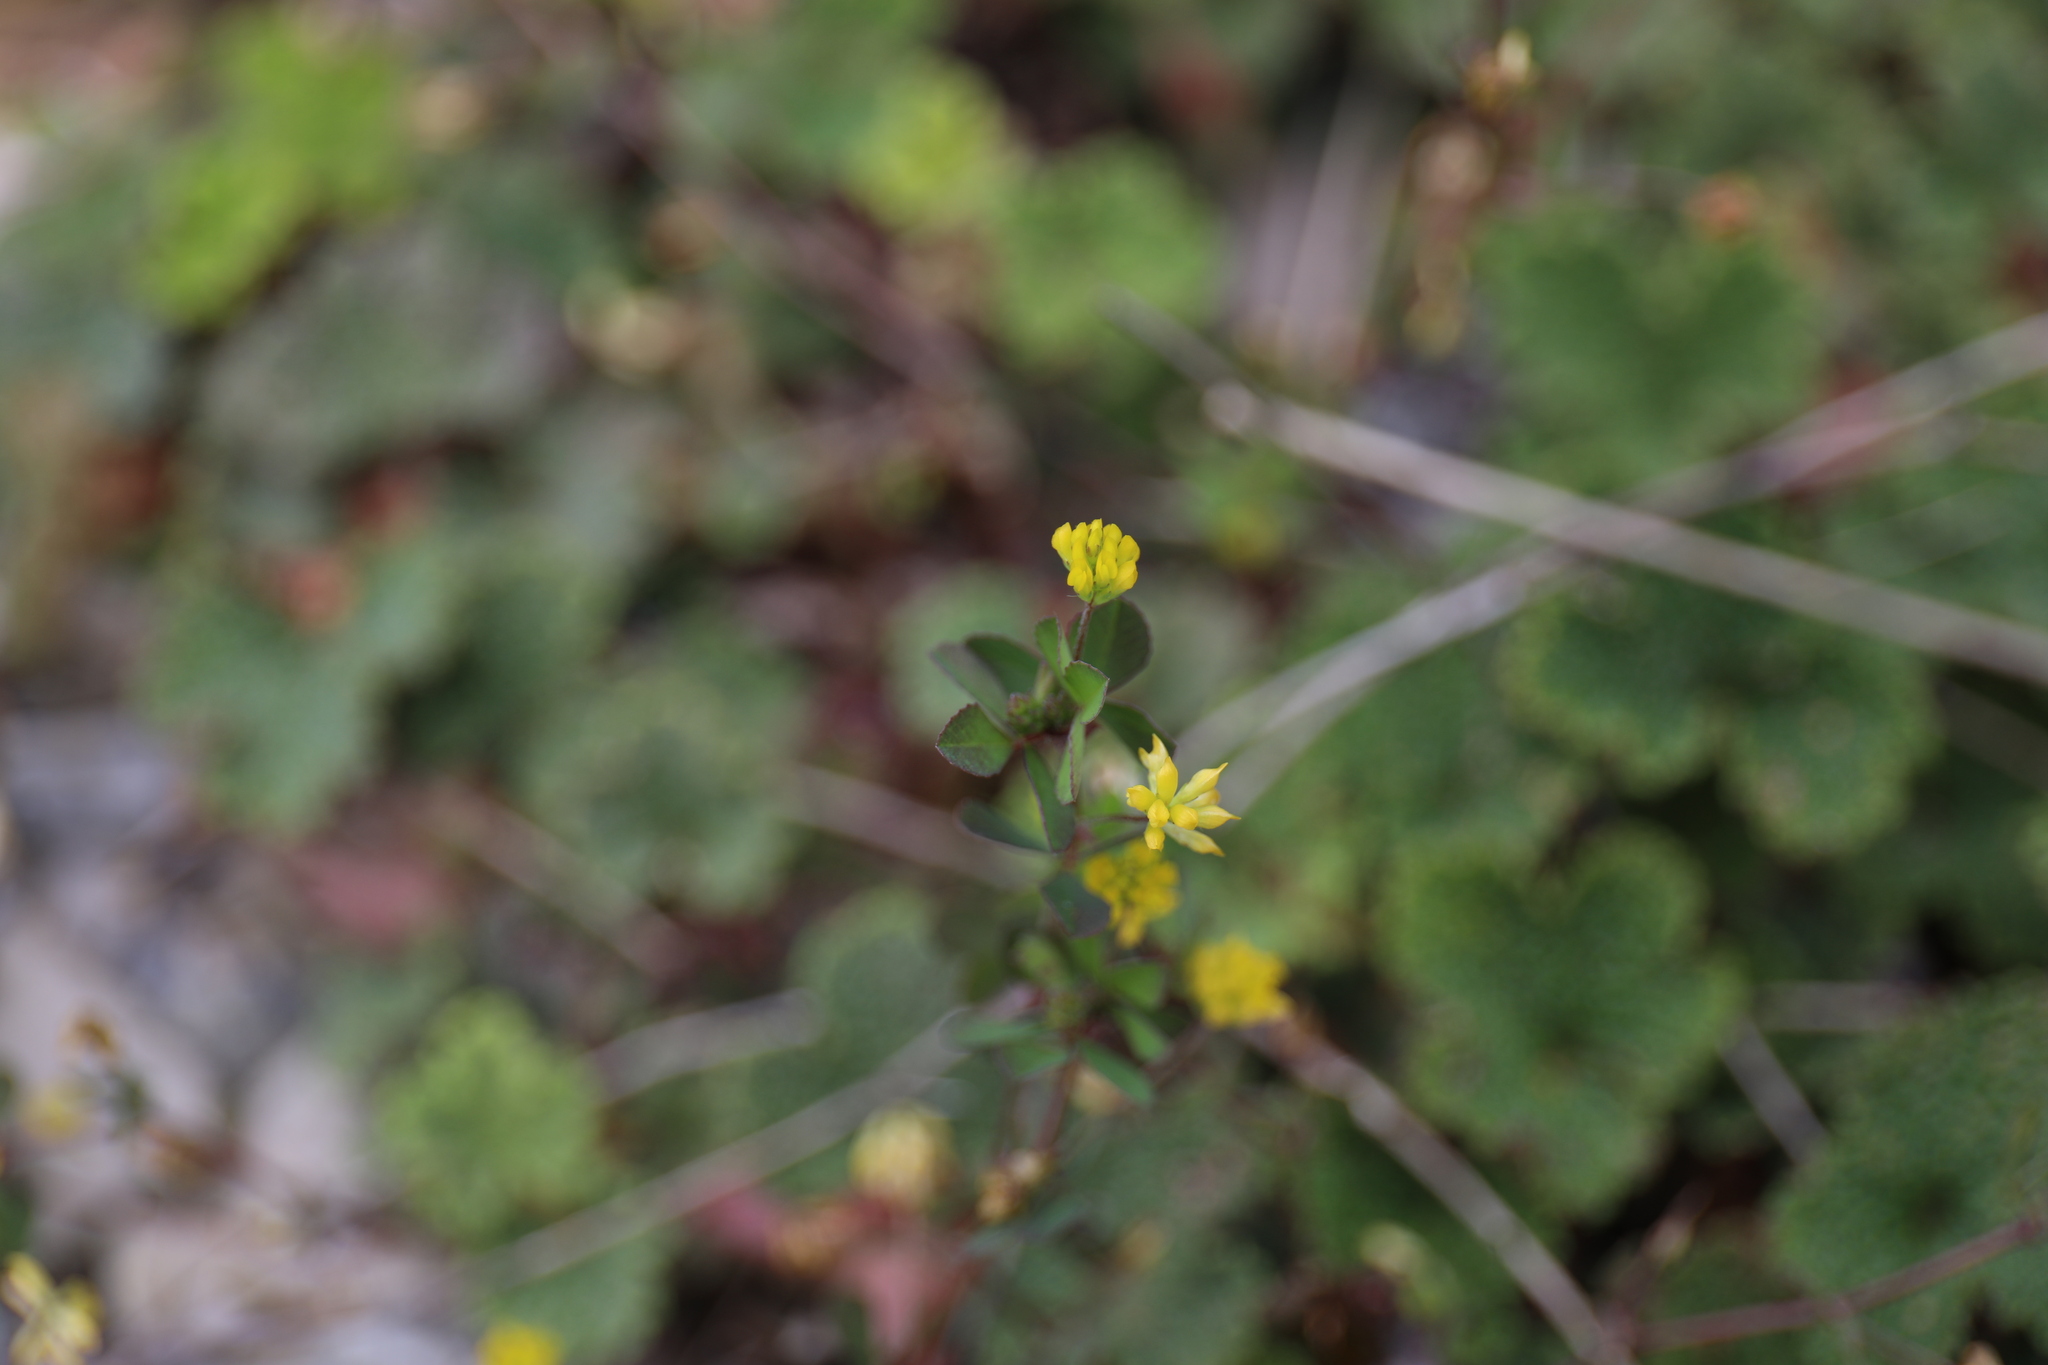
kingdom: Plantae
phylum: Tracheophyta
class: Magnoliopsida
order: Fabales
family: Fabaceae
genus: Trifolium
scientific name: Trifolium dubium
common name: Suckling clover
